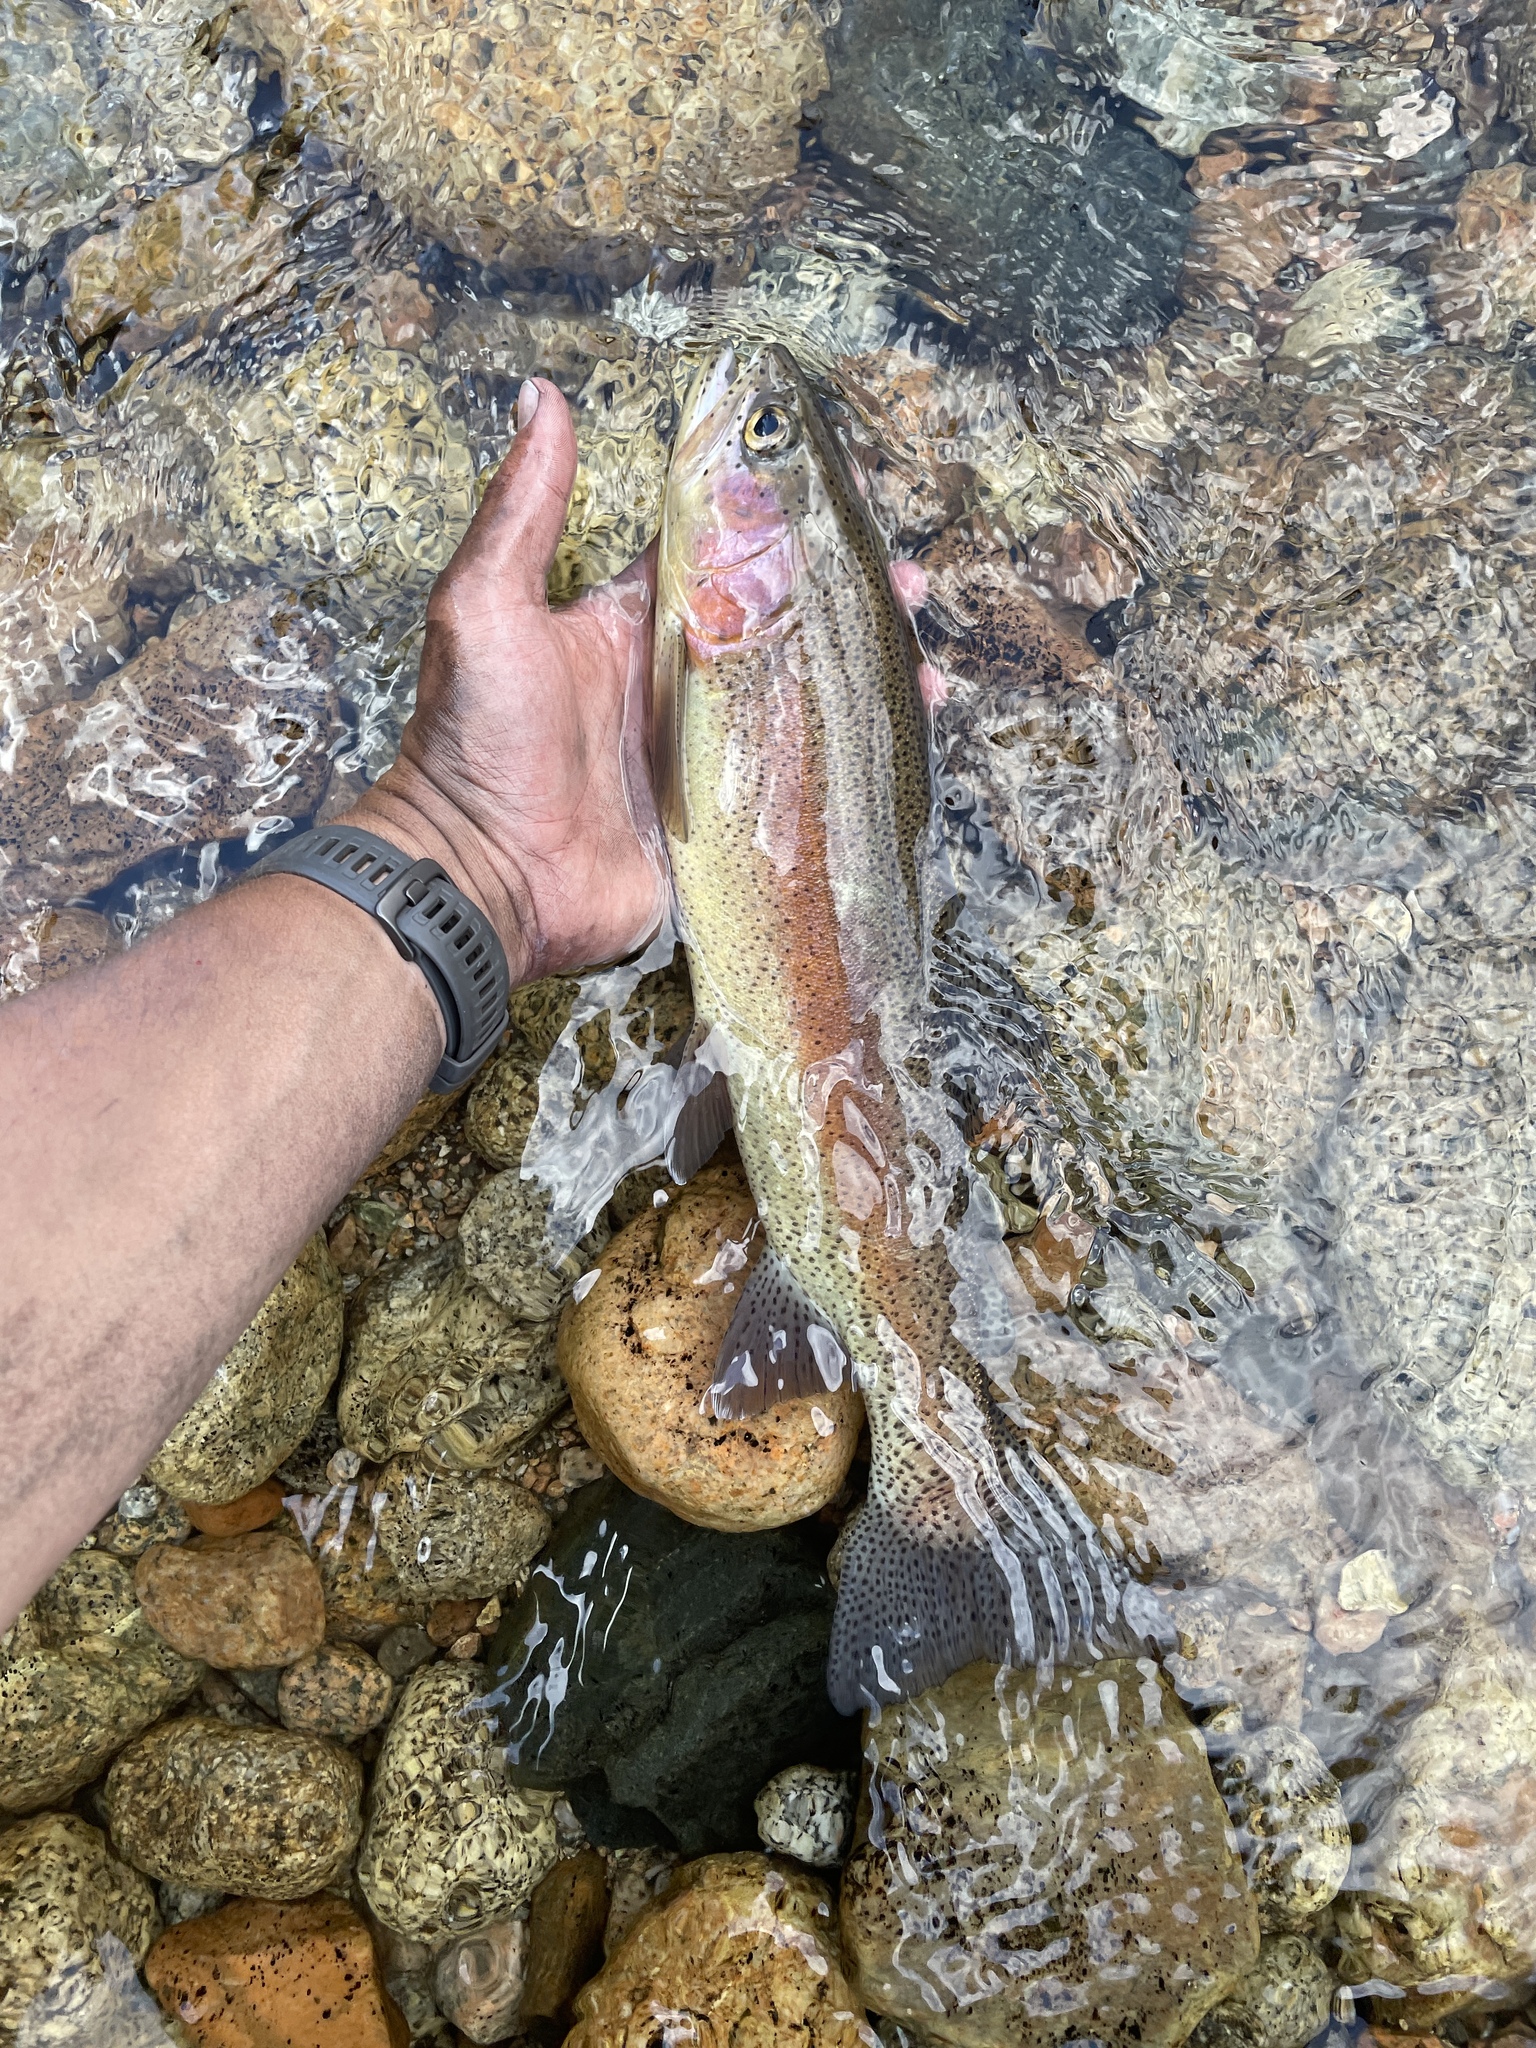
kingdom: Animalia
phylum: Chordata
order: Salmoniformes
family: Salmonidae
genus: Oncorhynchus
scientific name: Oncorhynchus mykiss
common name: Rainbow trout
